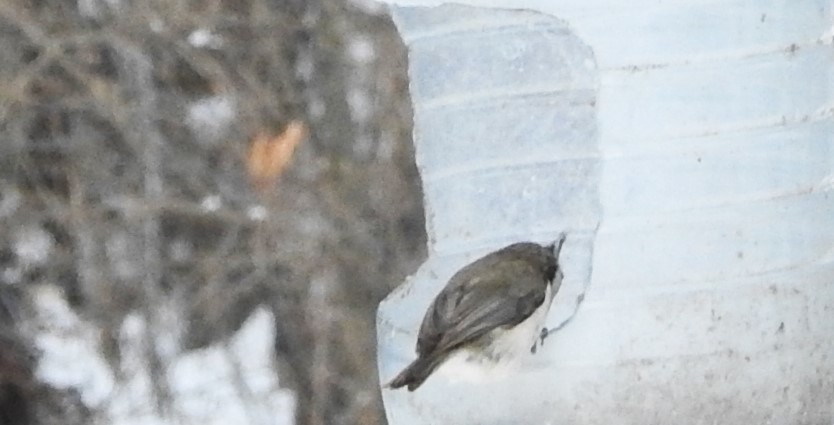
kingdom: Animalia
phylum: Chordata
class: Aves
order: Passeriformes
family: Paridae
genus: Lophophanes
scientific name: Lophophanes cristatus
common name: European crested tit
